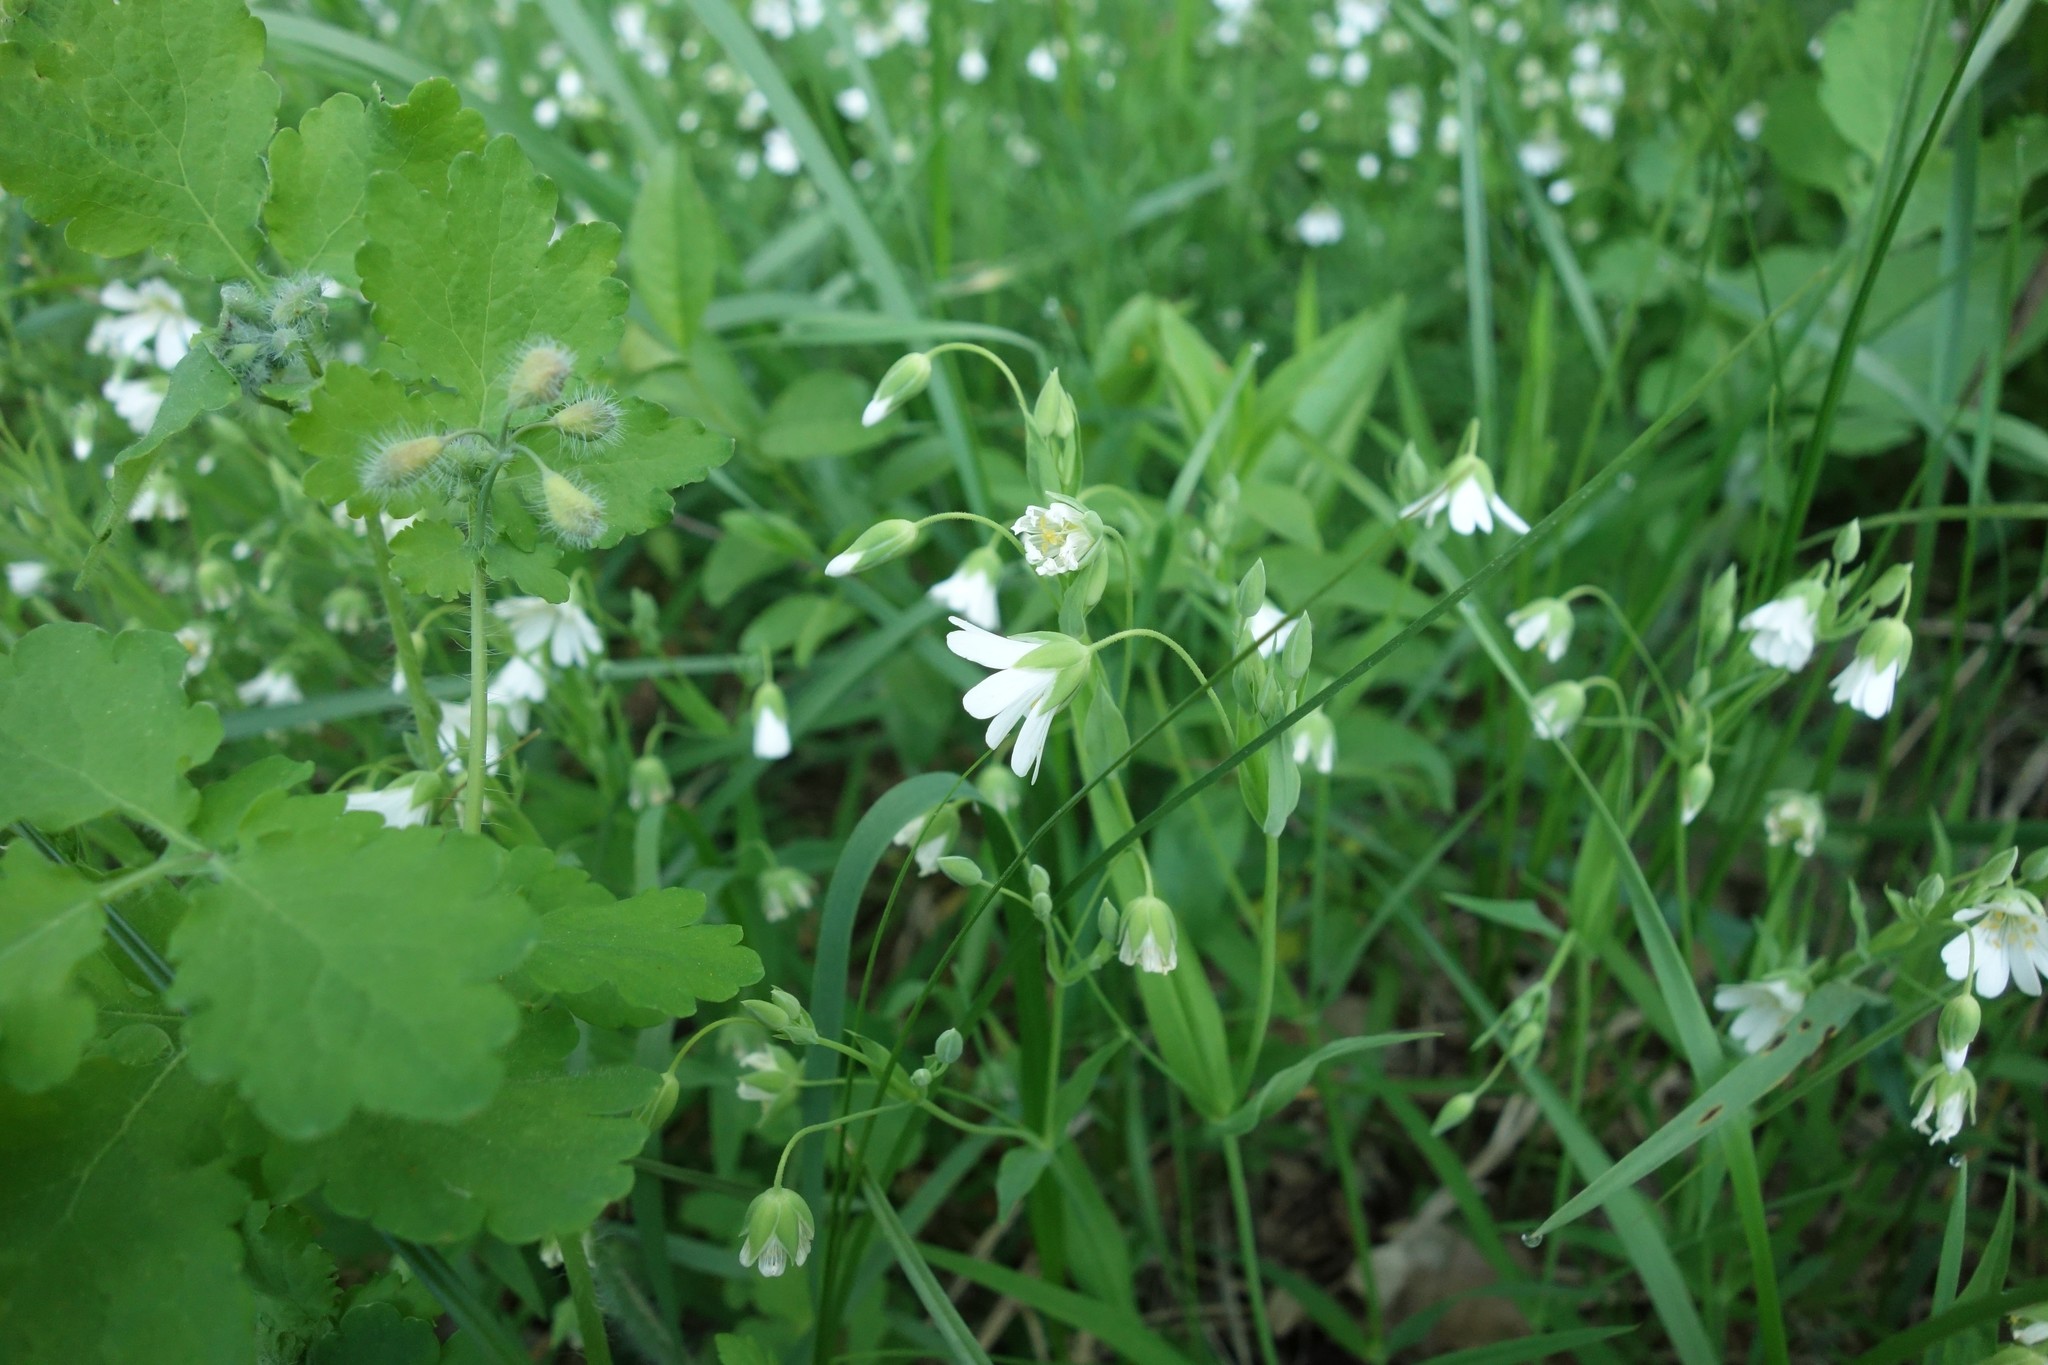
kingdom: Plantae
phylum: Tracheophyta
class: Magnoliopsida
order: Caryophyllales
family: Caryophyllaceae
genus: Rabelera
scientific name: Rabelera holostea
